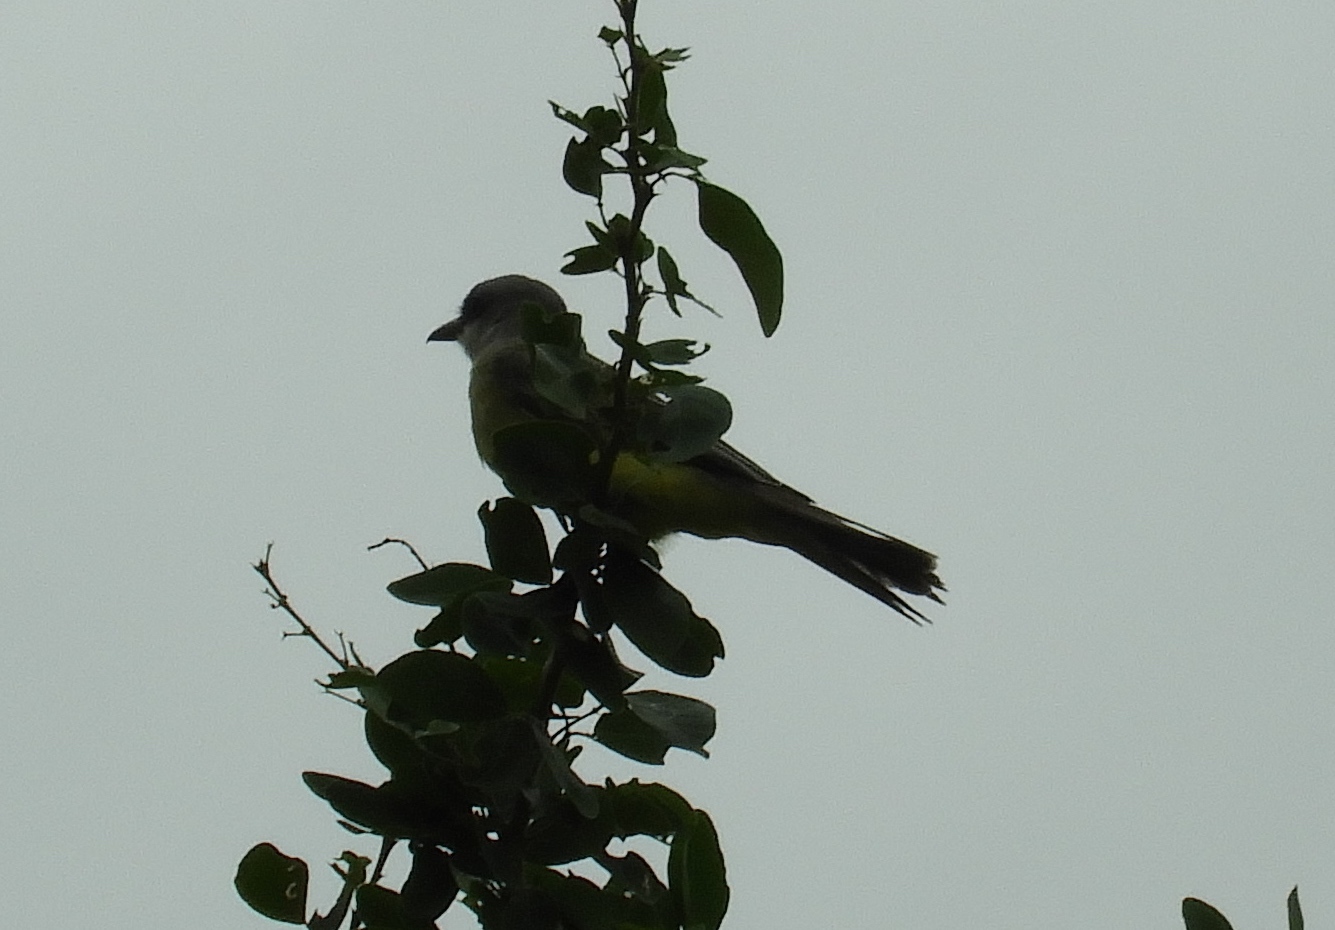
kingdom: Animalia
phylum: Chordata
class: Aves
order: Passeriformes
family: Tyrannidae
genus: Tyrannus
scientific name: Tyrannus melancholicus
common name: Tropical kingbird
